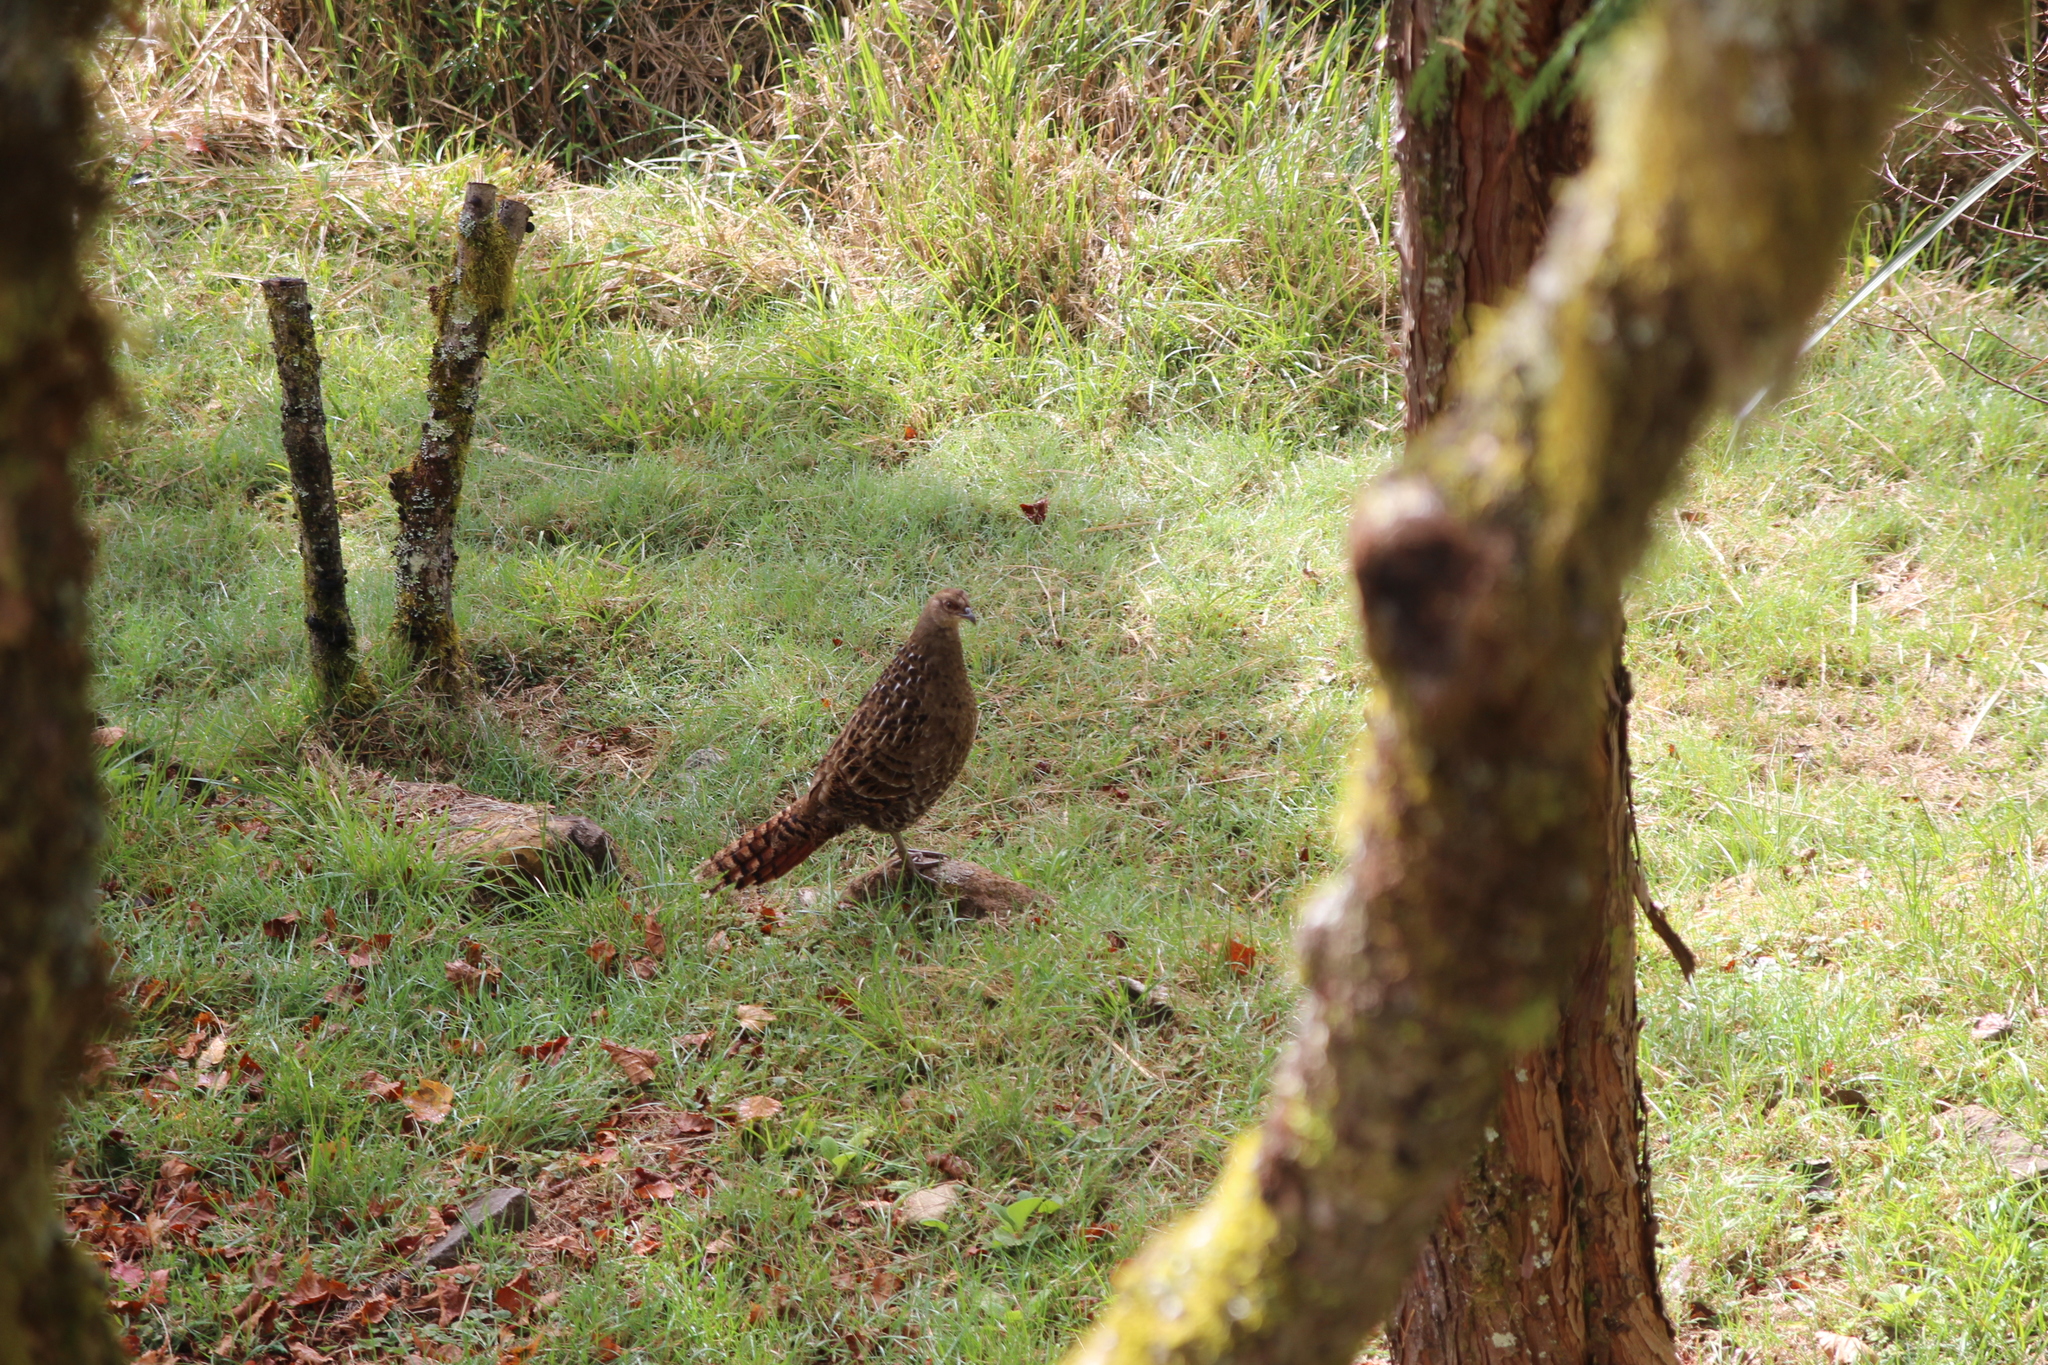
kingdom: Animalia
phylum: Chordata
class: Aves
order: Galliformes
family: Phasianidae
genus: Syrmaticus
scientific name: Syrmaticus mikado
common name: Mikado pheasant
